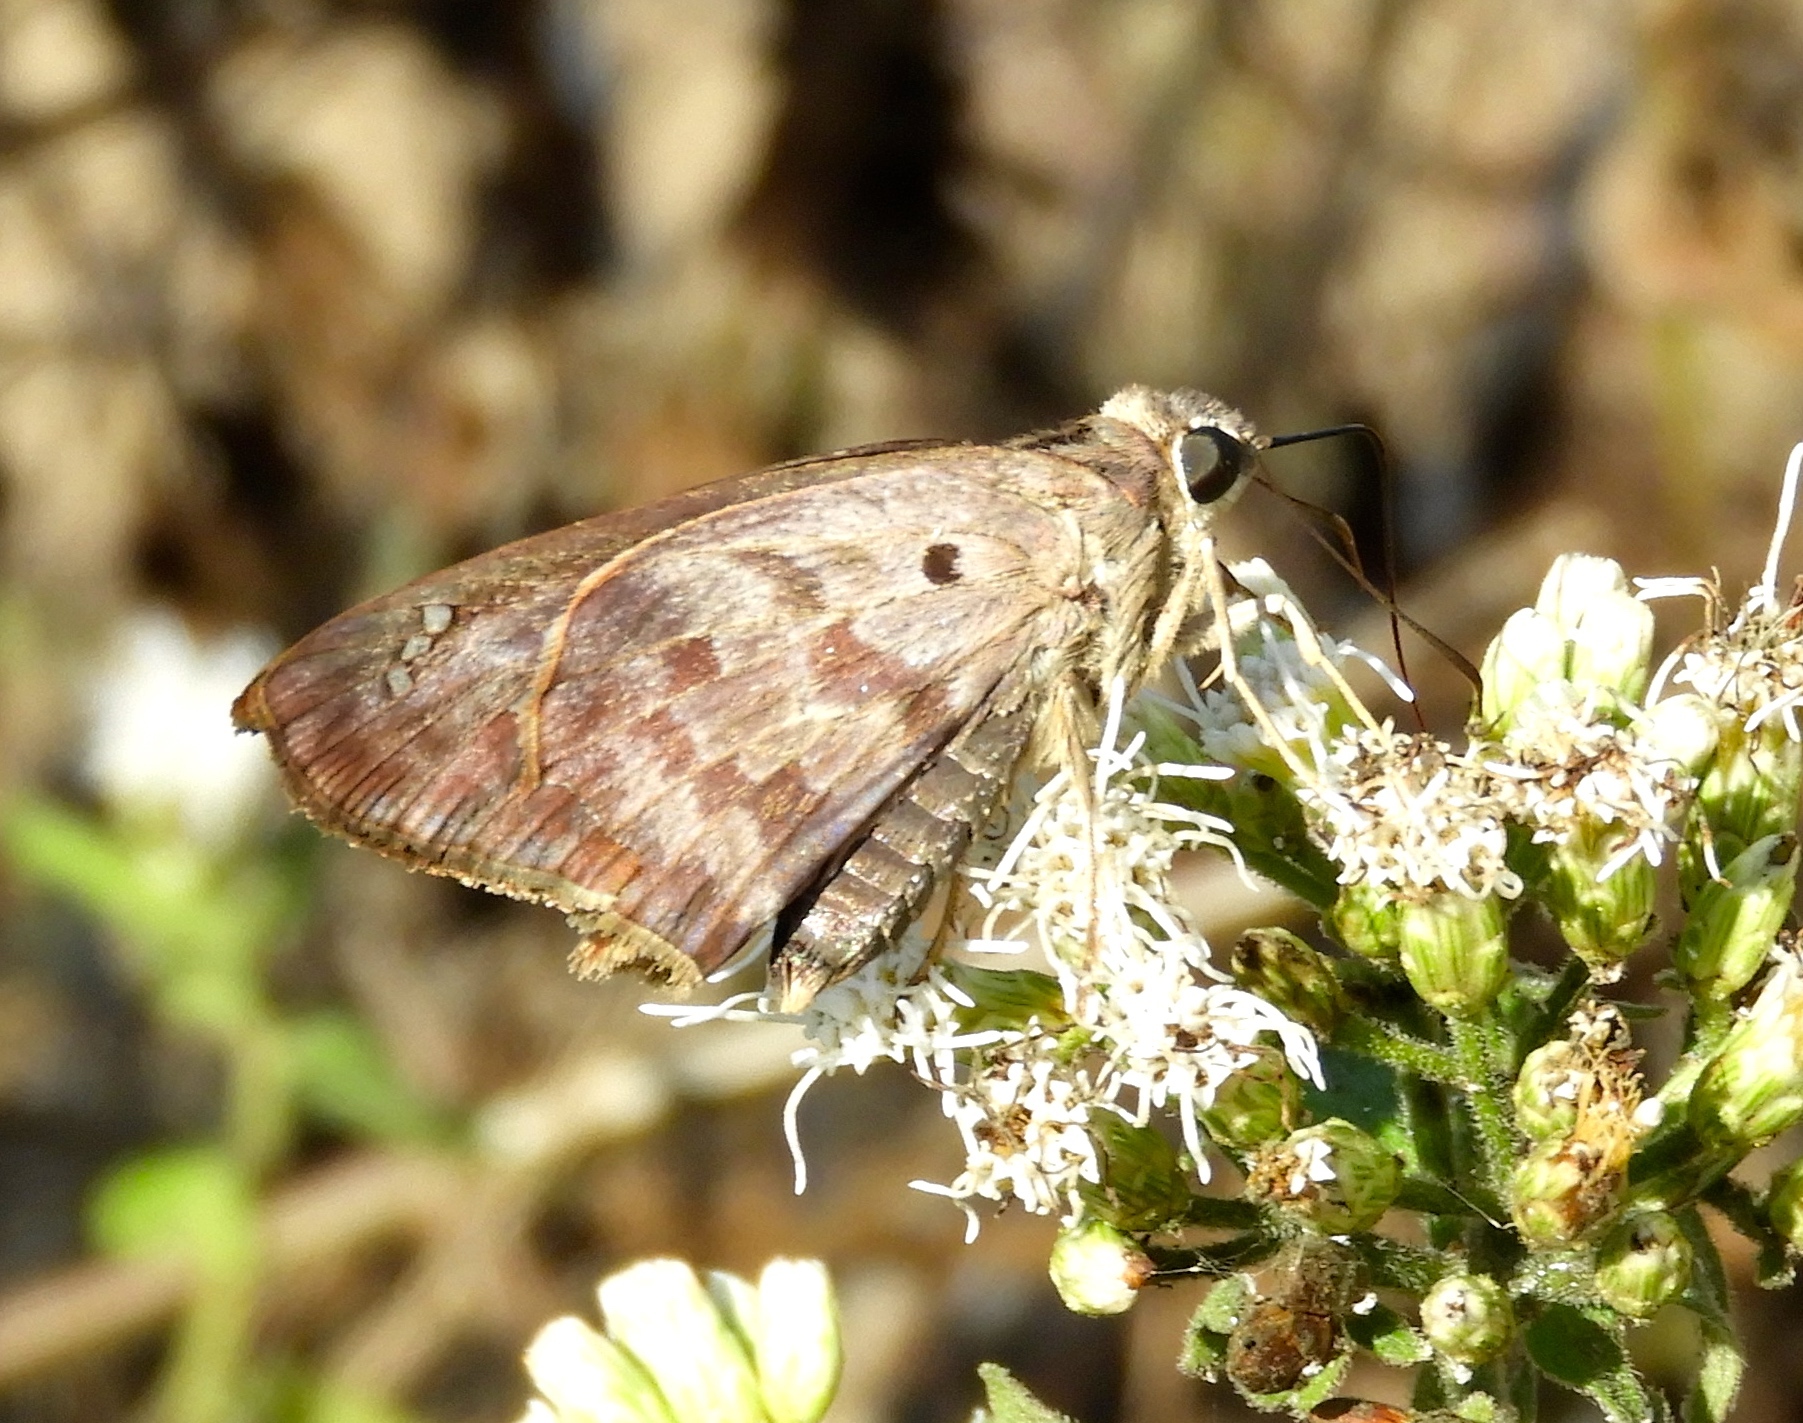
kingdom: Animalia
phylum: Arthropoda
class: Insecta
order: Lepidoptera
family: Hesperiidae
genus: Polygonus
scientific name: Polygonus
